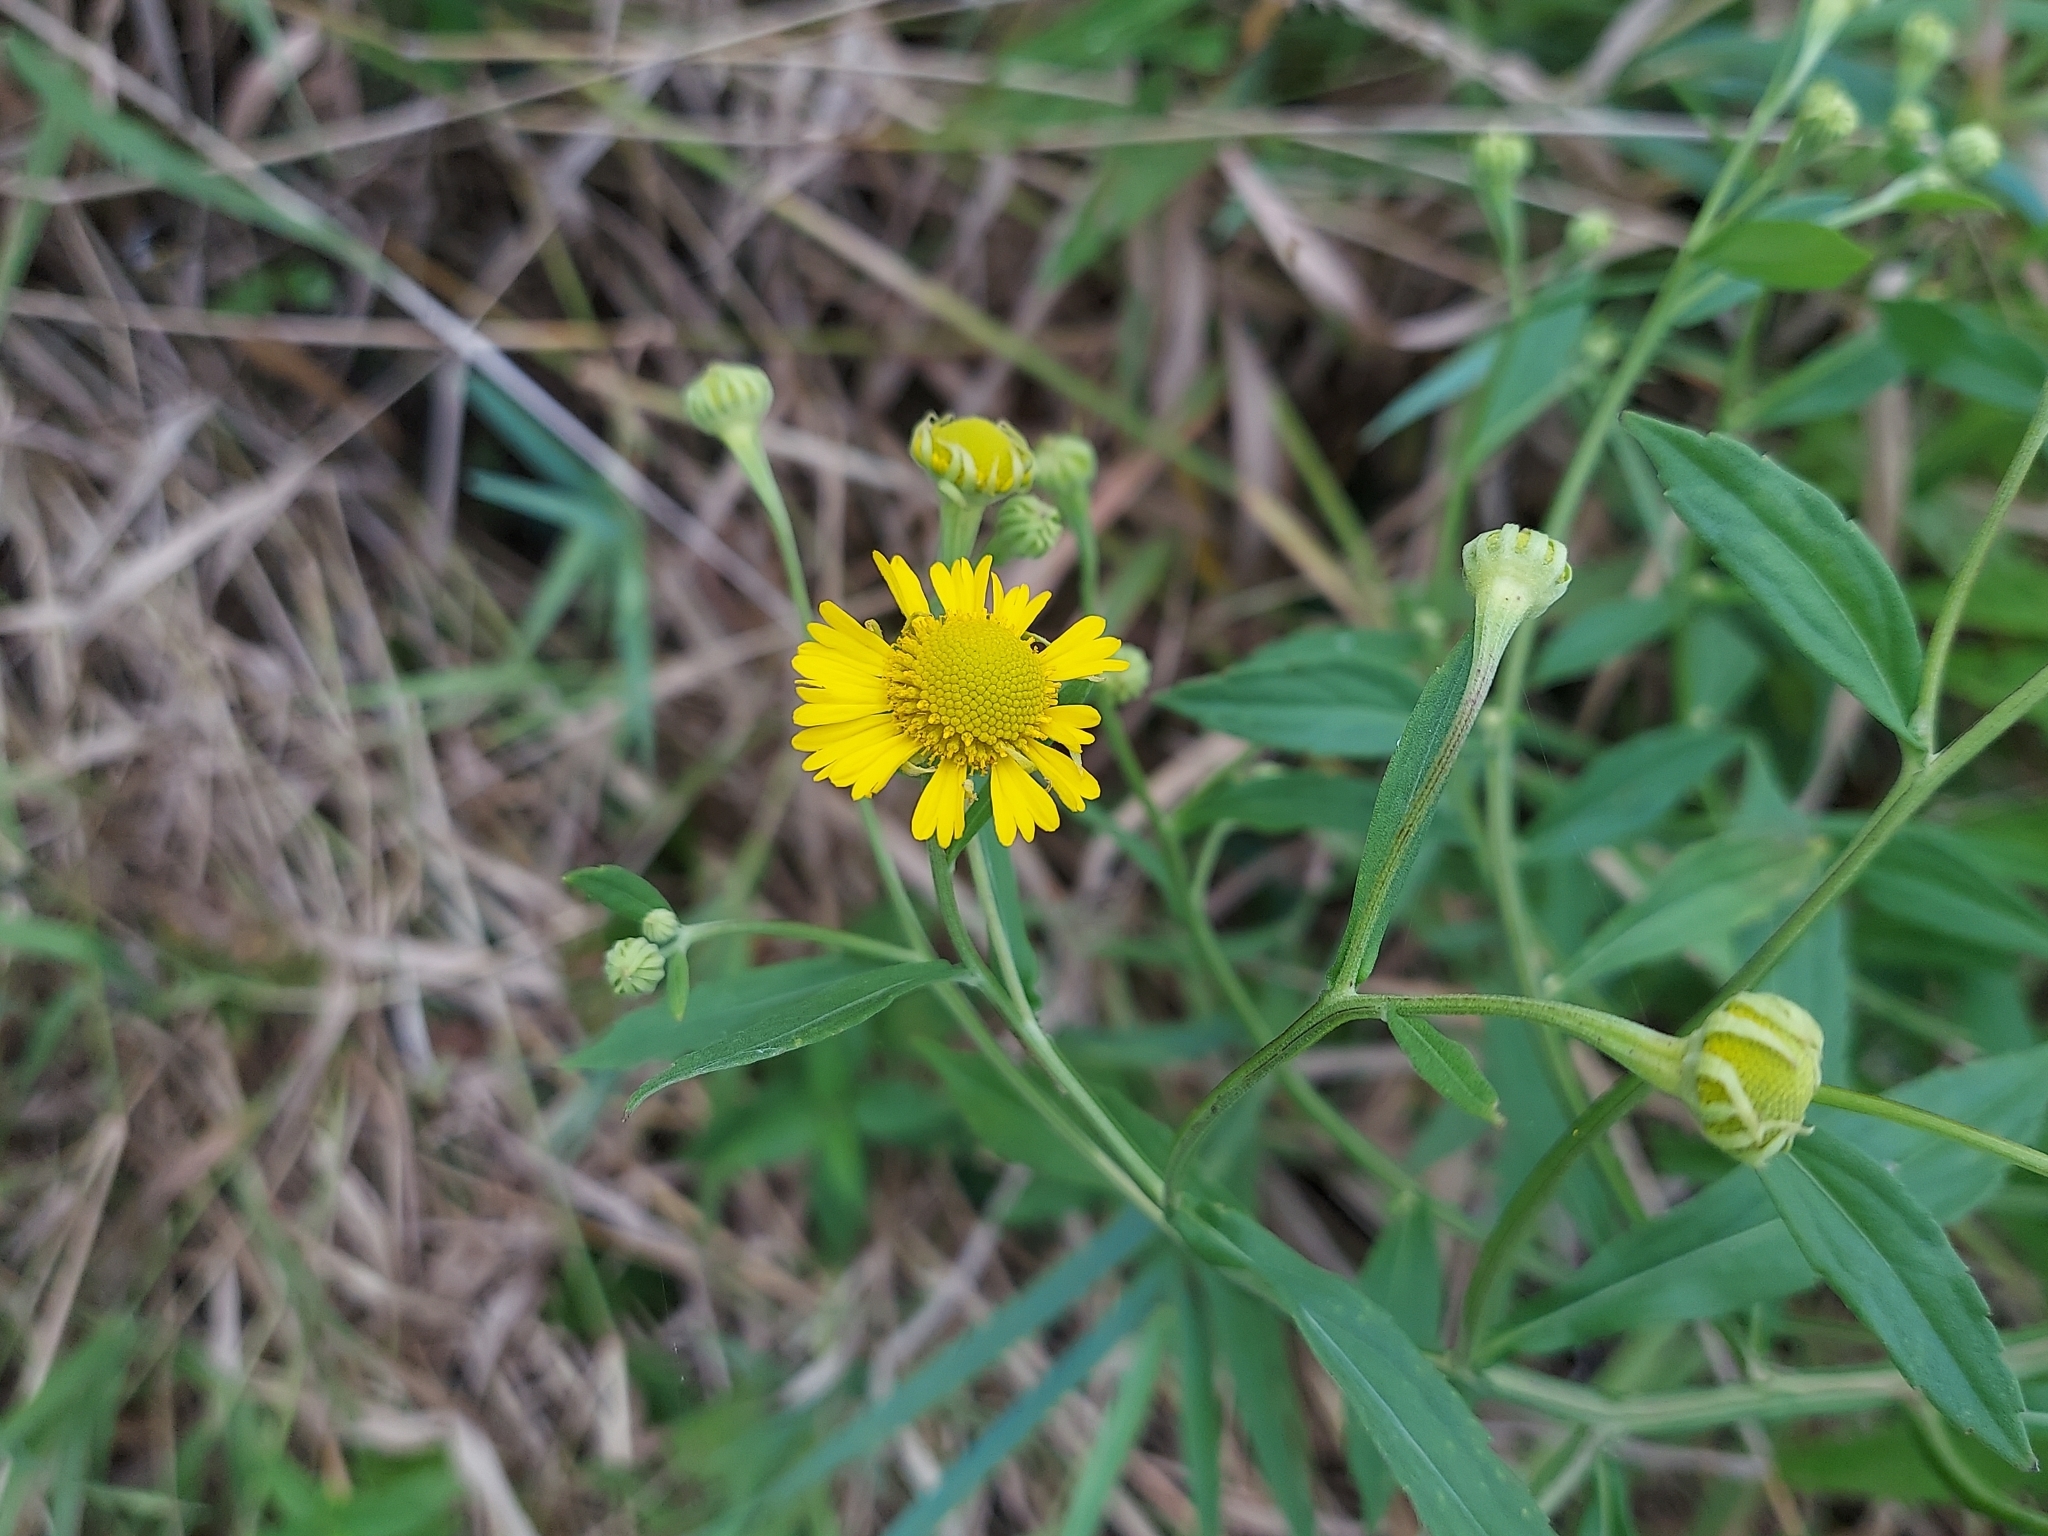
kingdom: Plantae
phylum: Tracheophyta
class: Magnoliopsida
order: Asterales
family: Asteraceae
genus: Helenium
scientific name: Helenium autumnale
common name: Sneezeweed
